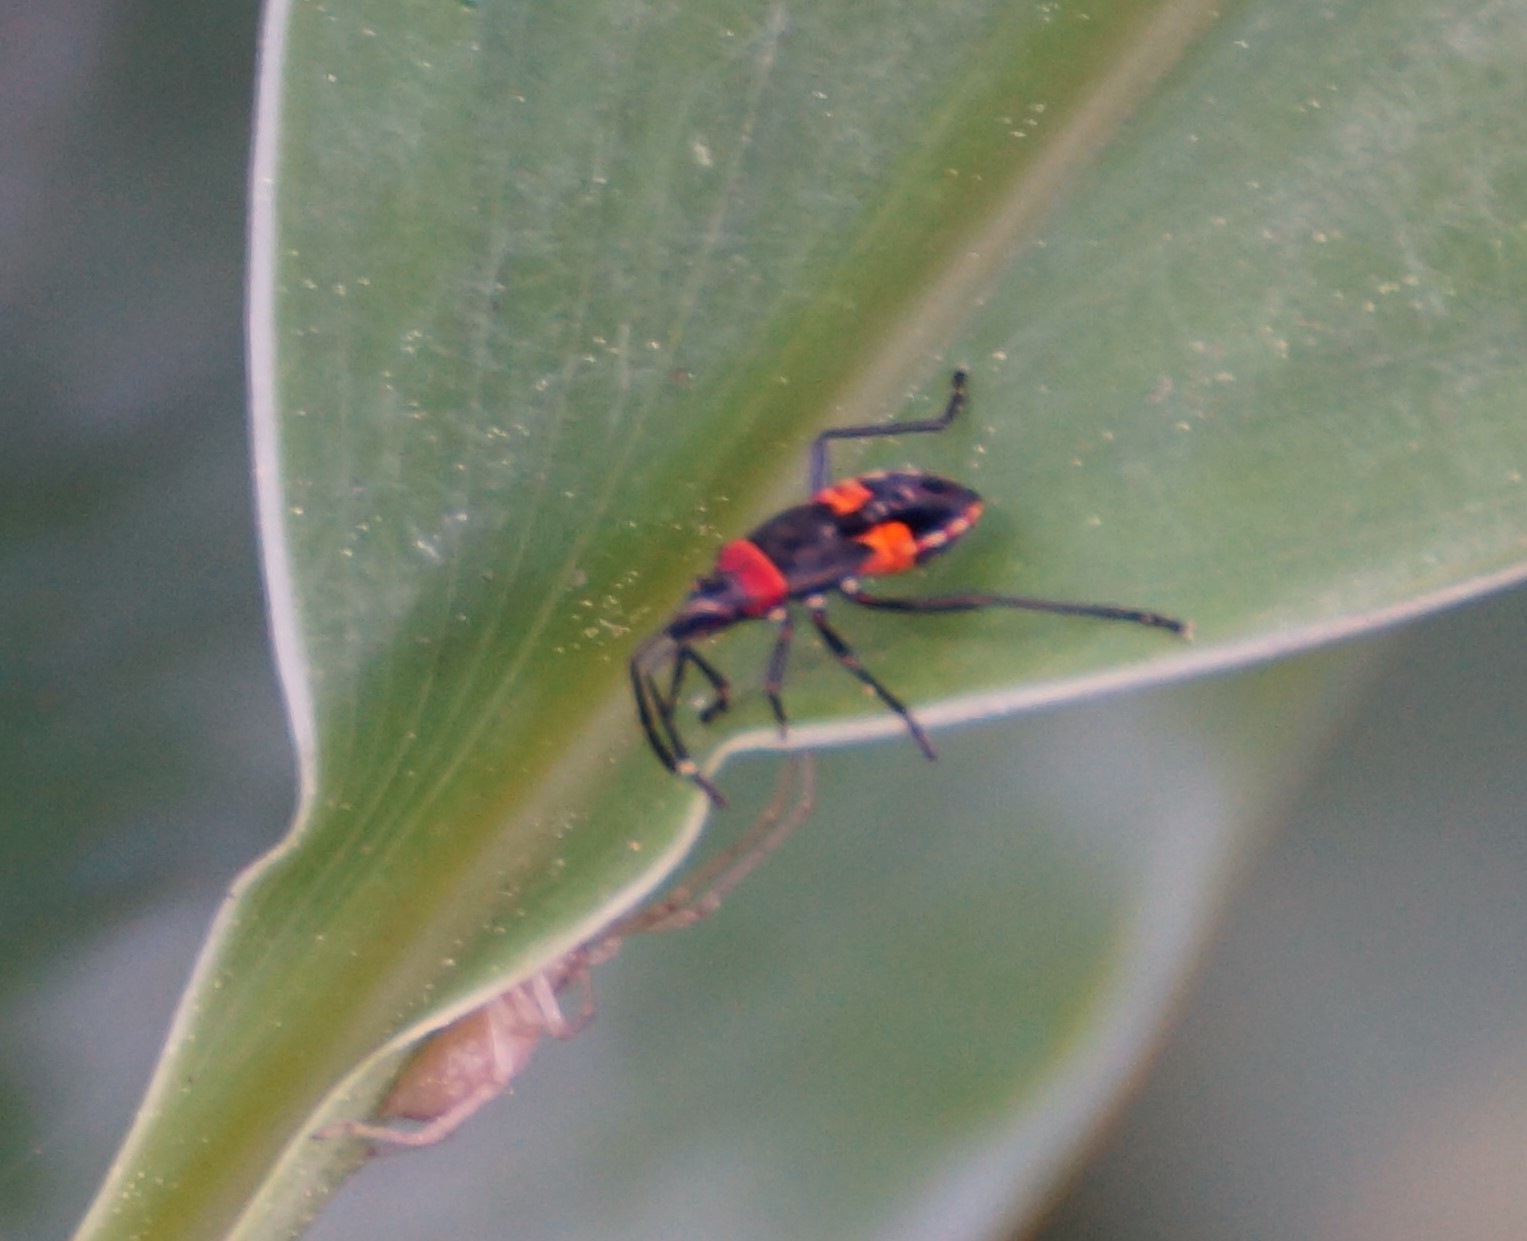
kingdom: Animalia
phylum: Arthropoda
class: Insecta
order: Hemiptera
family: Pyrrhocoridae
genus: Dindymus
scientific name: Dindymus
